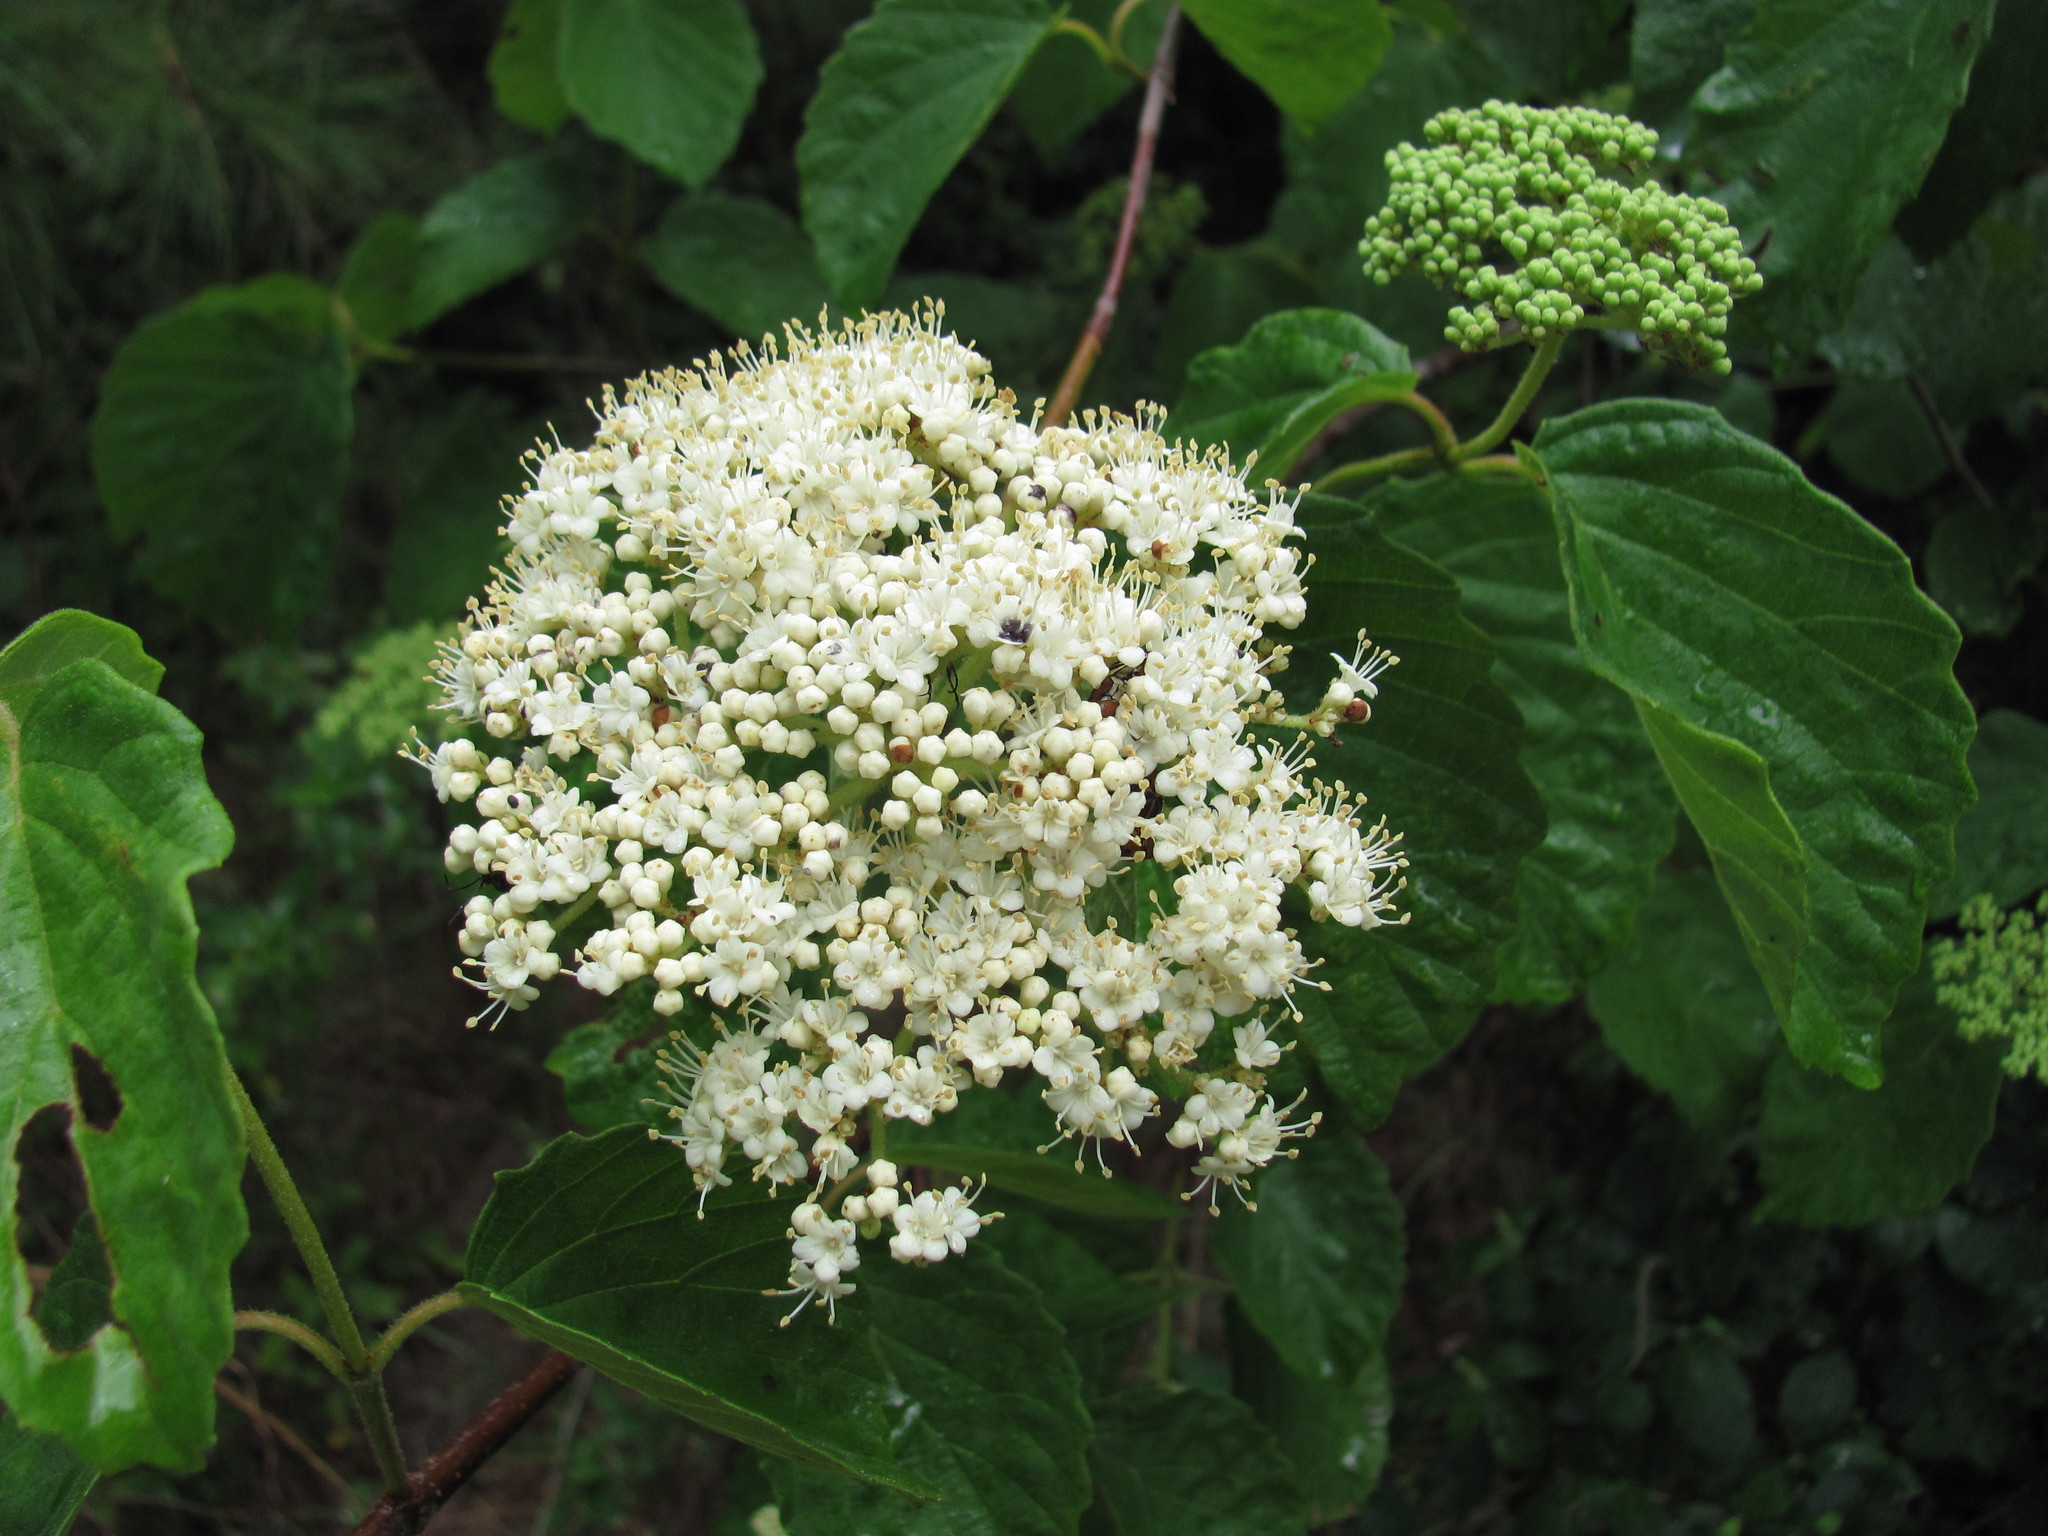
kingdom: Plantae
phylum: Tracheophyta
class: Magnoliopsida
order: Dipsacales
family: Viburnaceae
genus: Viburnum
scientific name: Viburnum scabrellum
